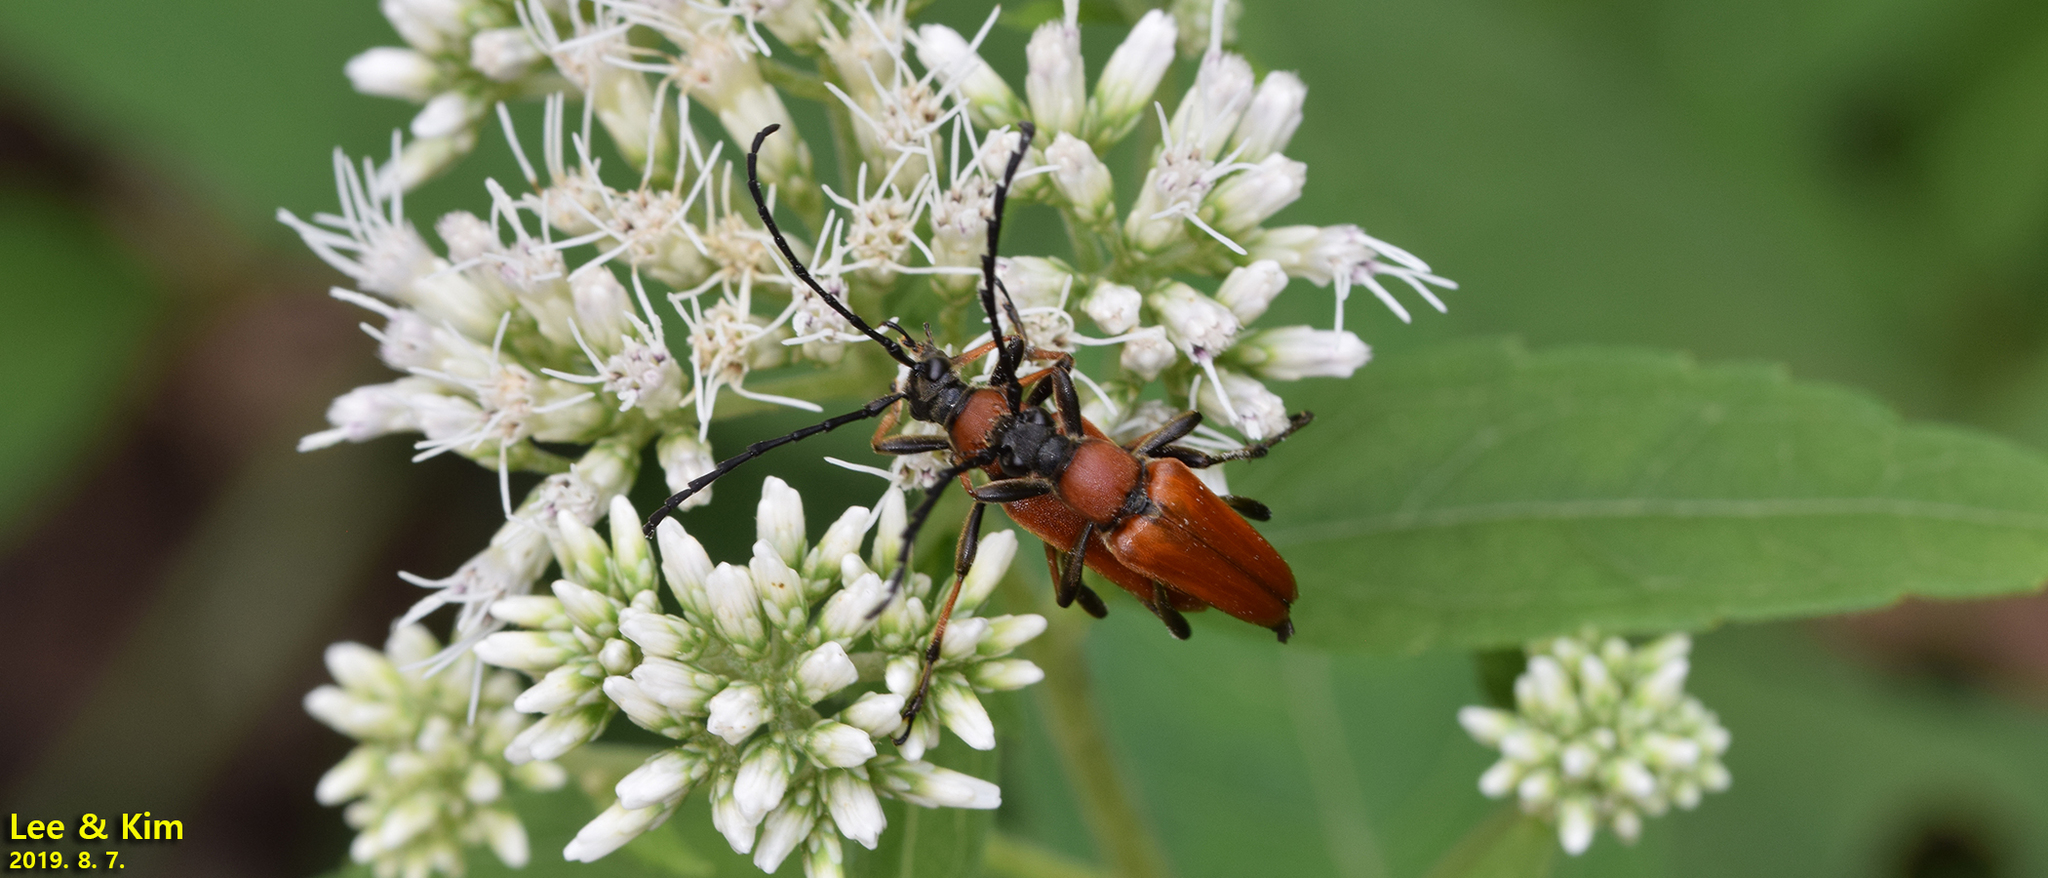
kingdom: Animalia
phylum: Arthropoda
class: Insecta
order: Coleoptera
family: Cerambycidae
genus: Stictoleptura
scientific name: Stictoleptura dichroa
